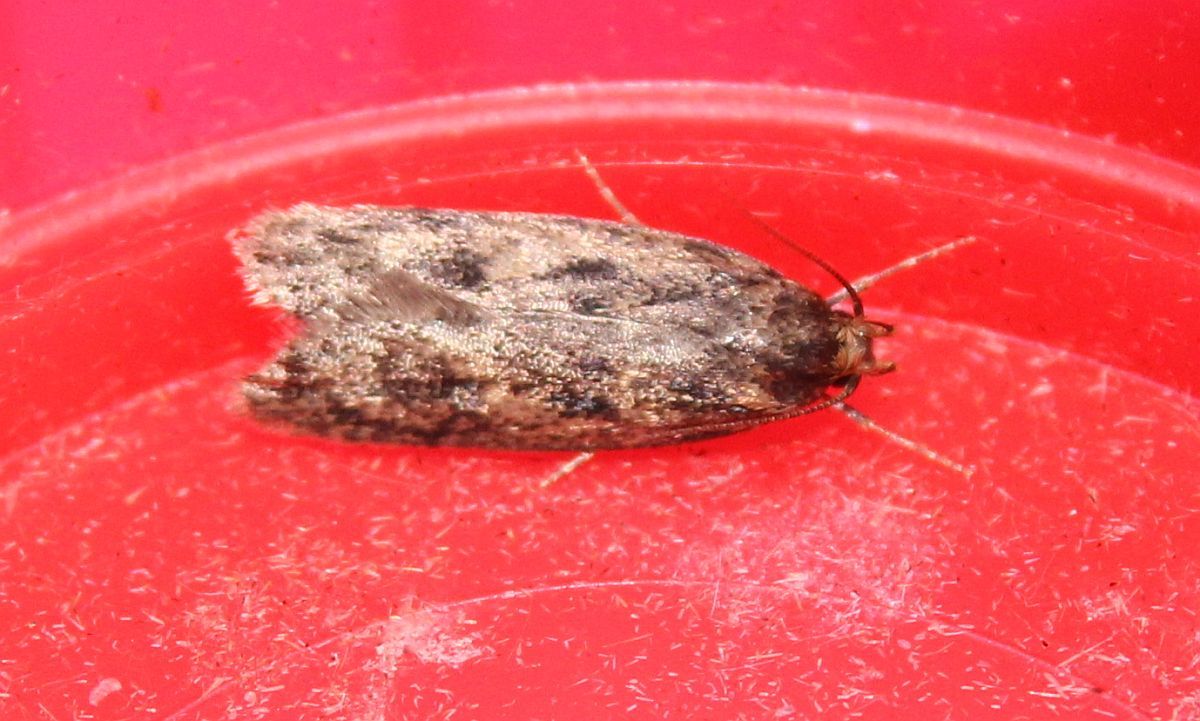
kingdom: Animalia
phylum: Arthropoda
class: Insecta
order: Lepidoptera
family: Oecophoridae
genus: Hofmannophila
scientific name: Hofmannophila pseudospretella
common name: Brown house moth
